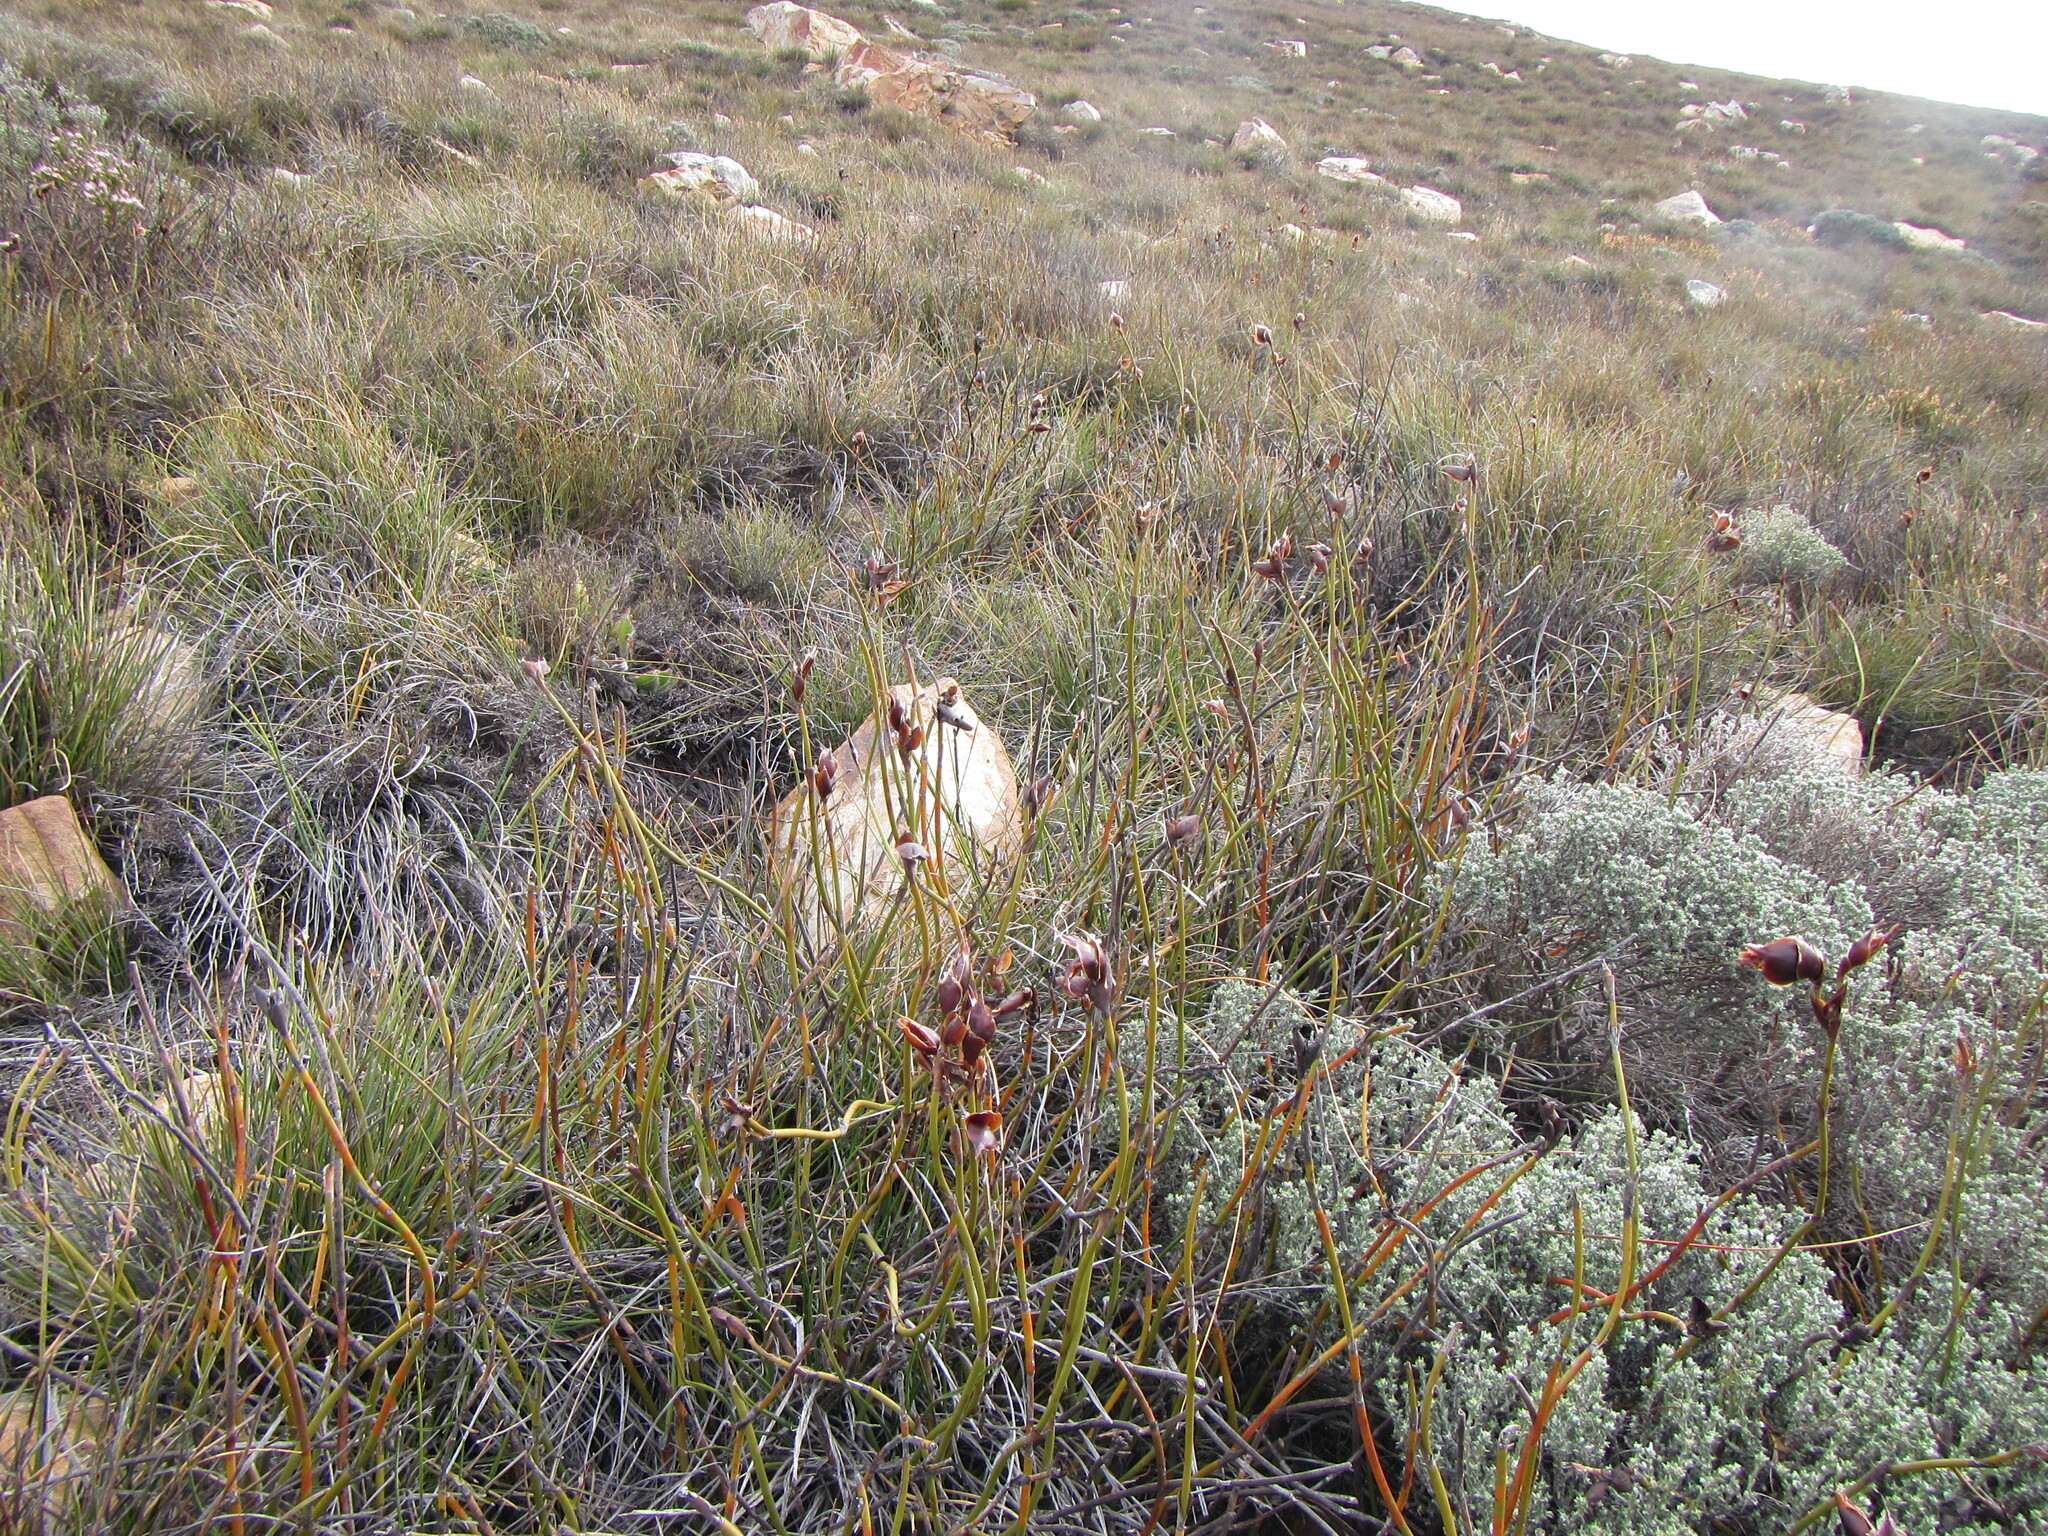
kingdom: Plantae
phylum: Tracheophyta
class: Liliopsida
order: Poales
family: Restionaceae
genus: Willdenowia
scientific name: Willdenowia stokoei
